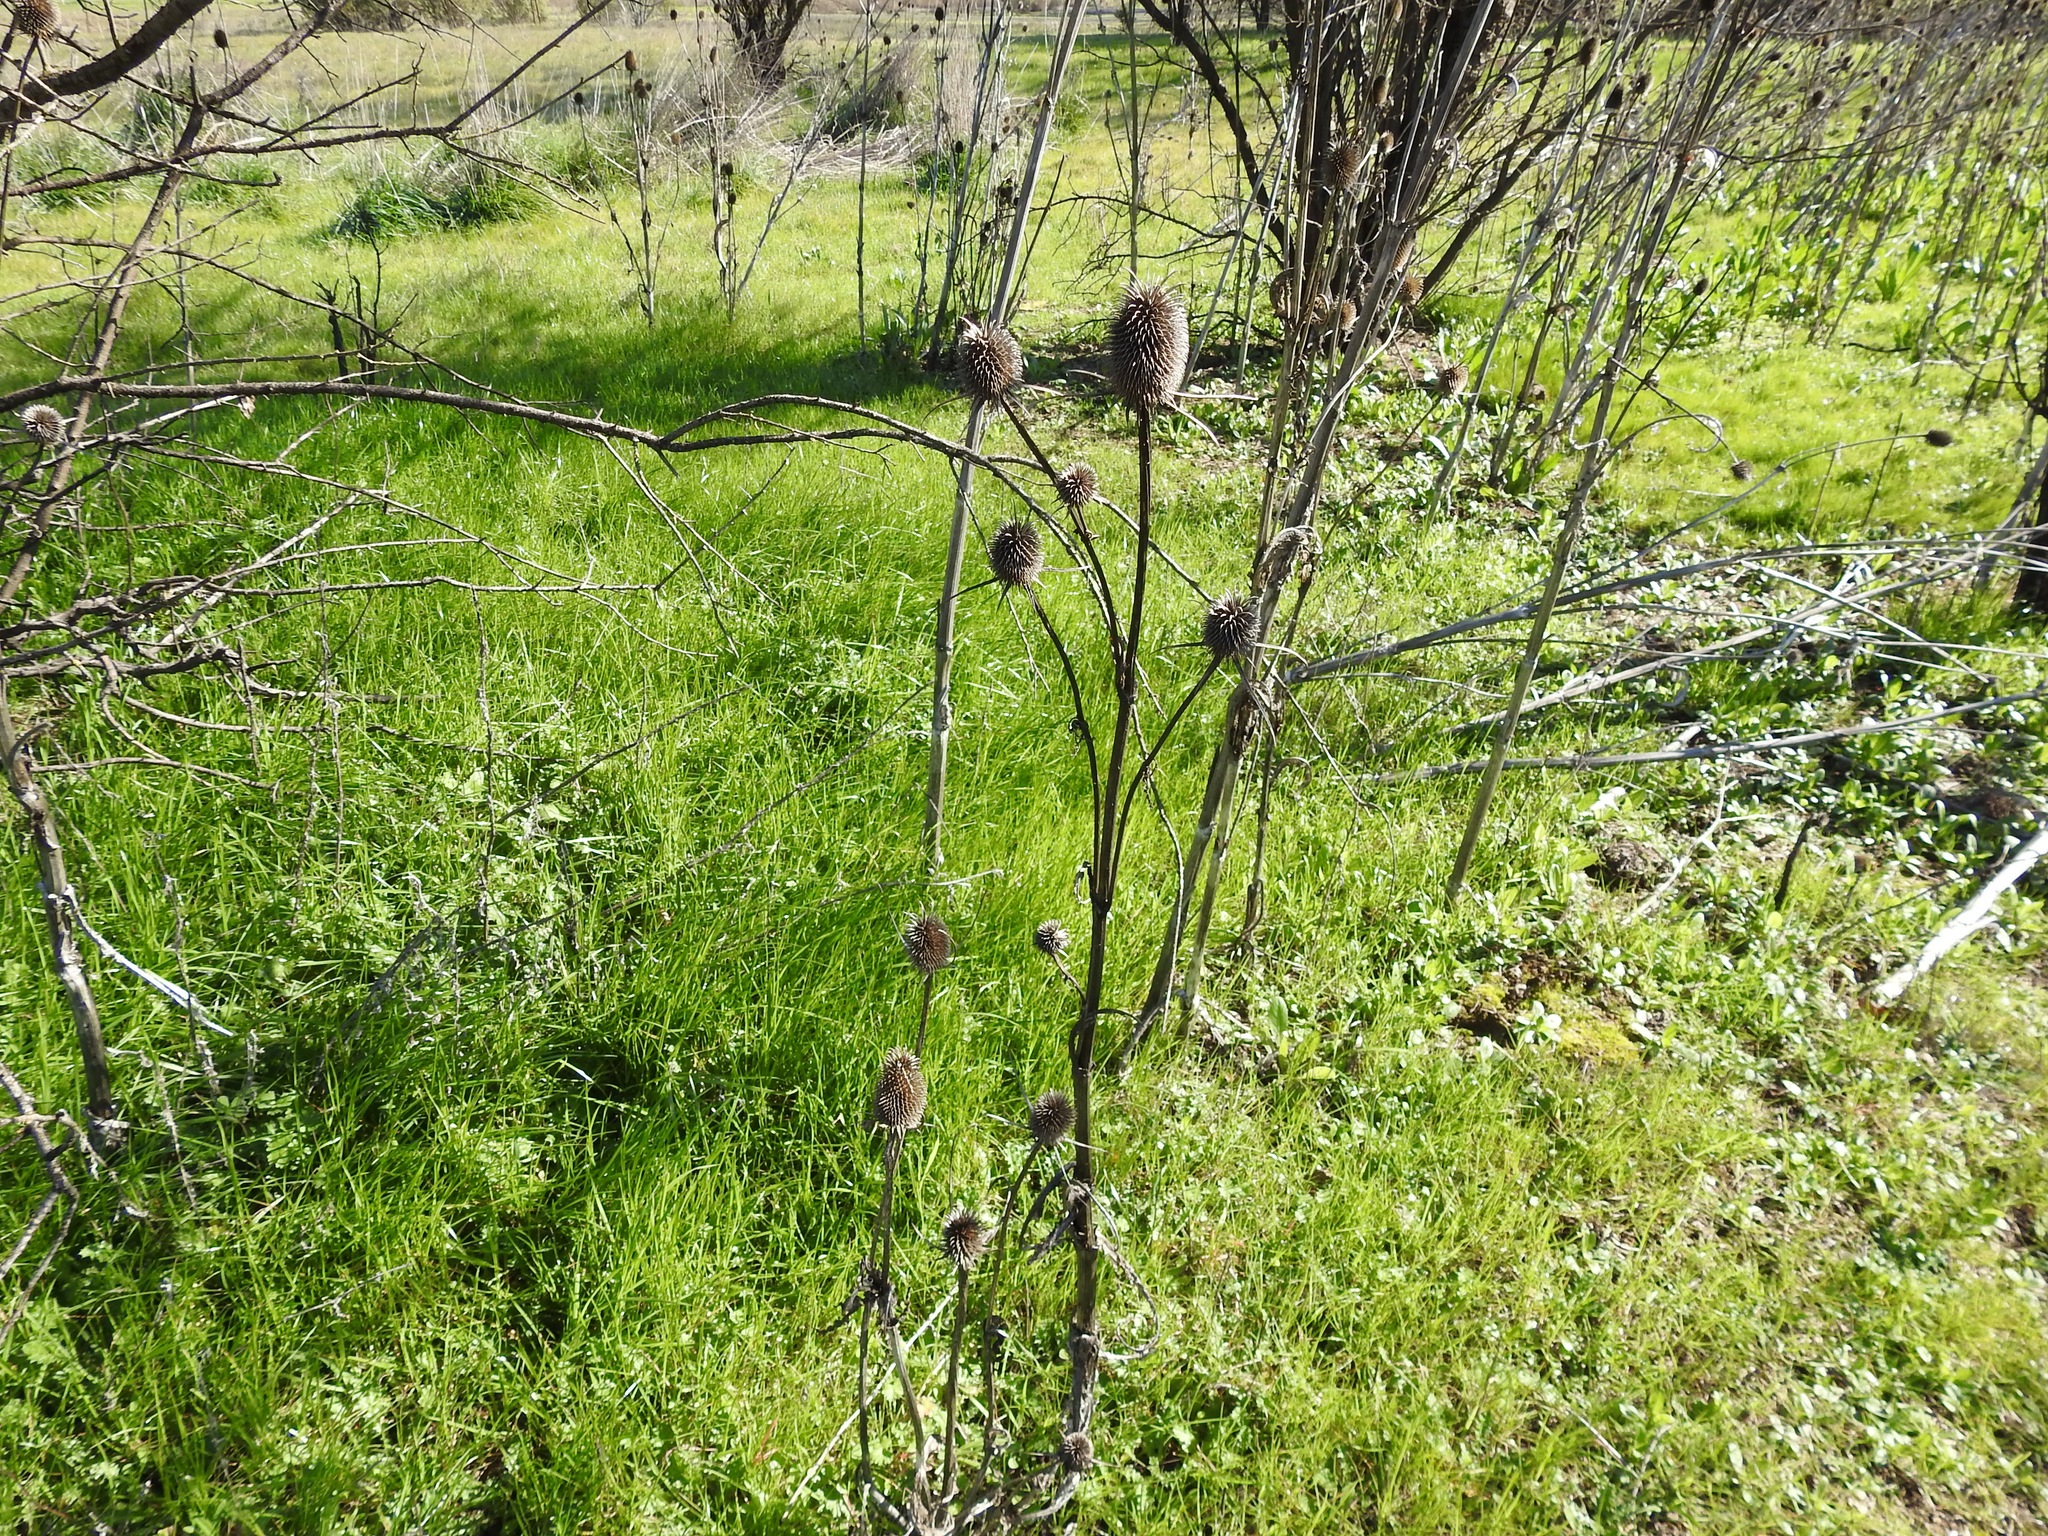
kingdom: Plantae
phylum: Tracheophyta
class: Magnoliopsida
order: Dipsacales
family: Caprifoliaceae
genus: Dipsacus
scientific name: Dipsacus sativus
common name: Fuller's teasel
